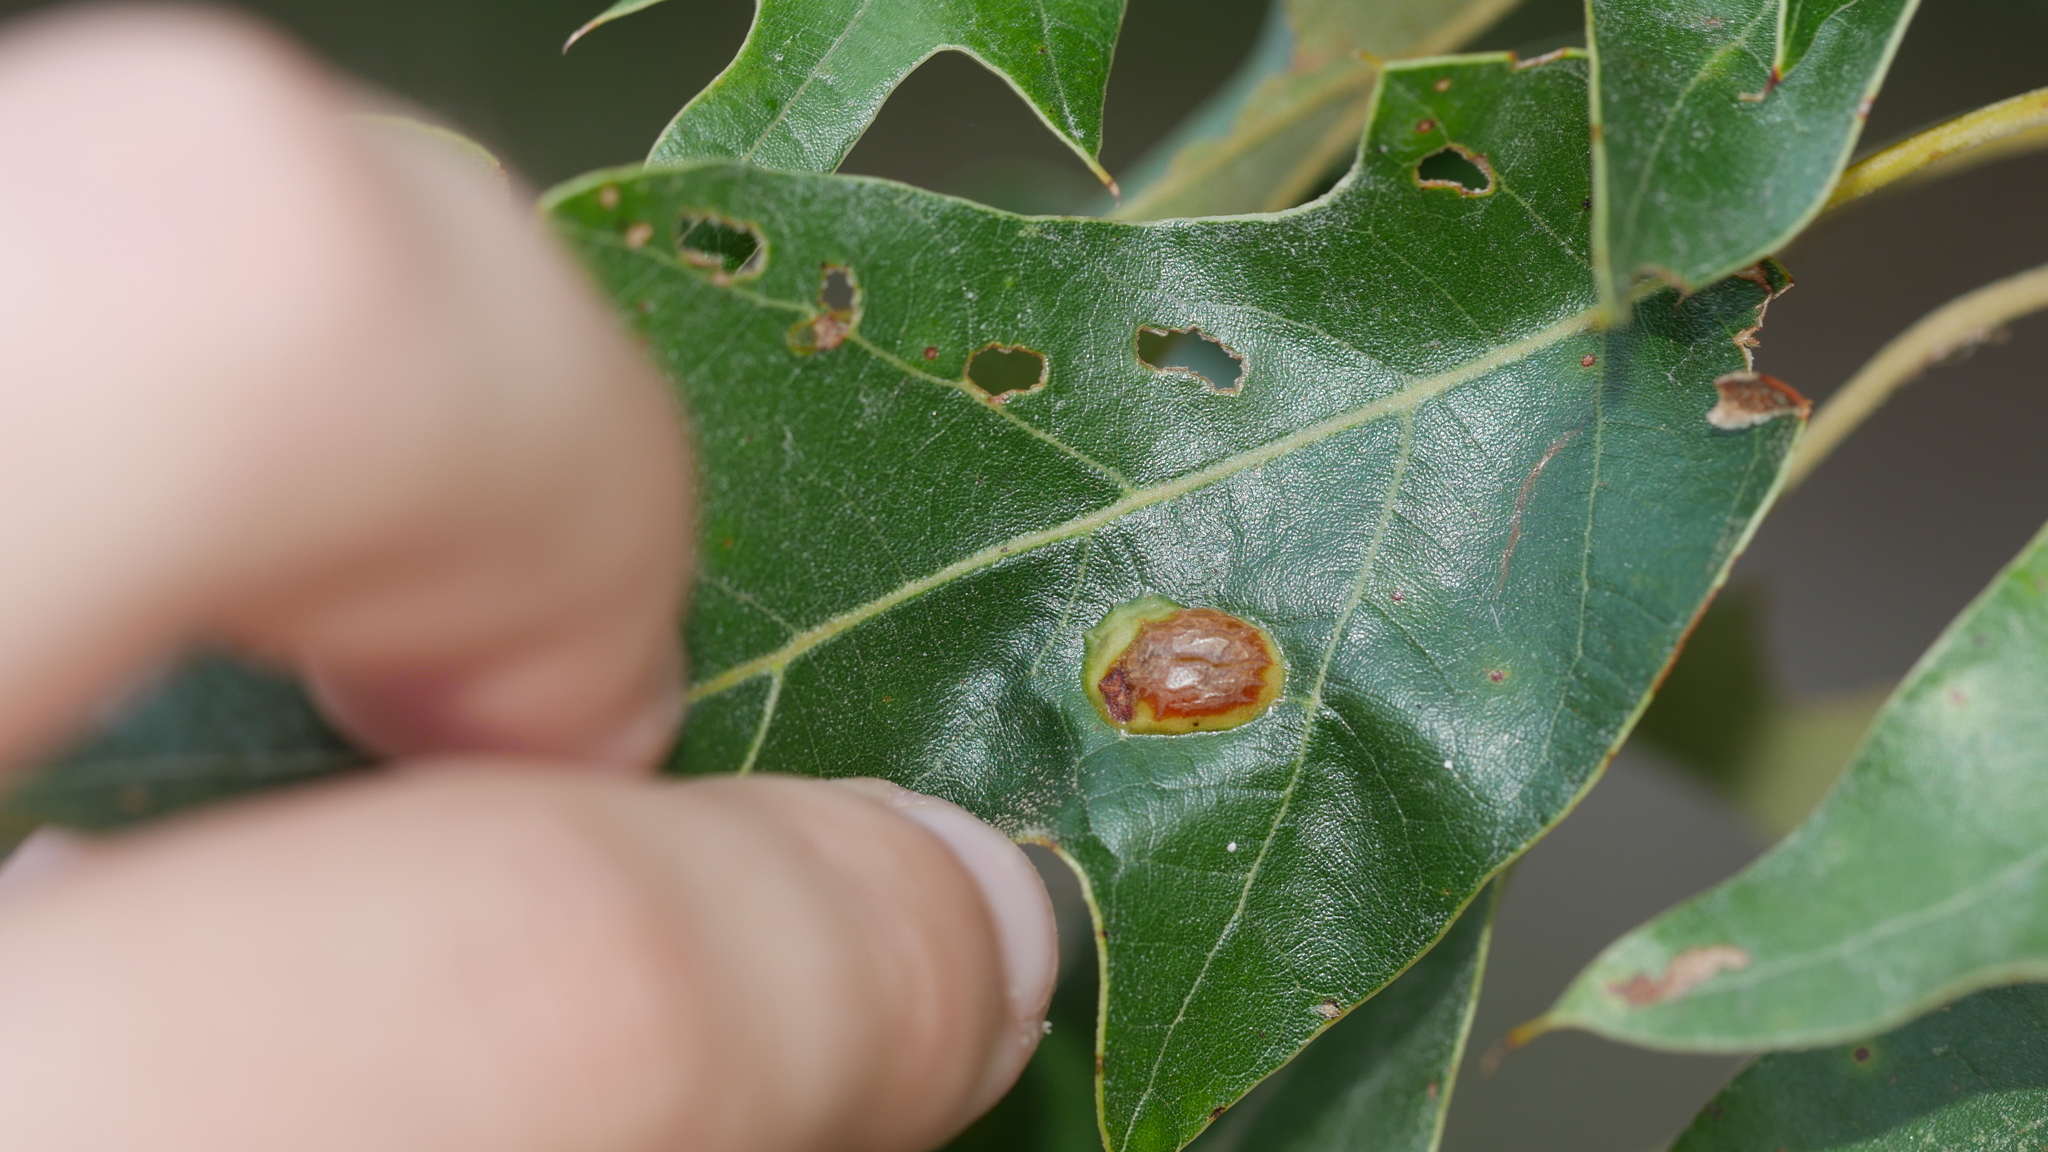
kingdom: Animalia
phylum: Arthropoda
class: Insecta
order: Diptera
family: Cecidomyiidae
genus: Polystepha
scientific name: Polystepha symmetrica
